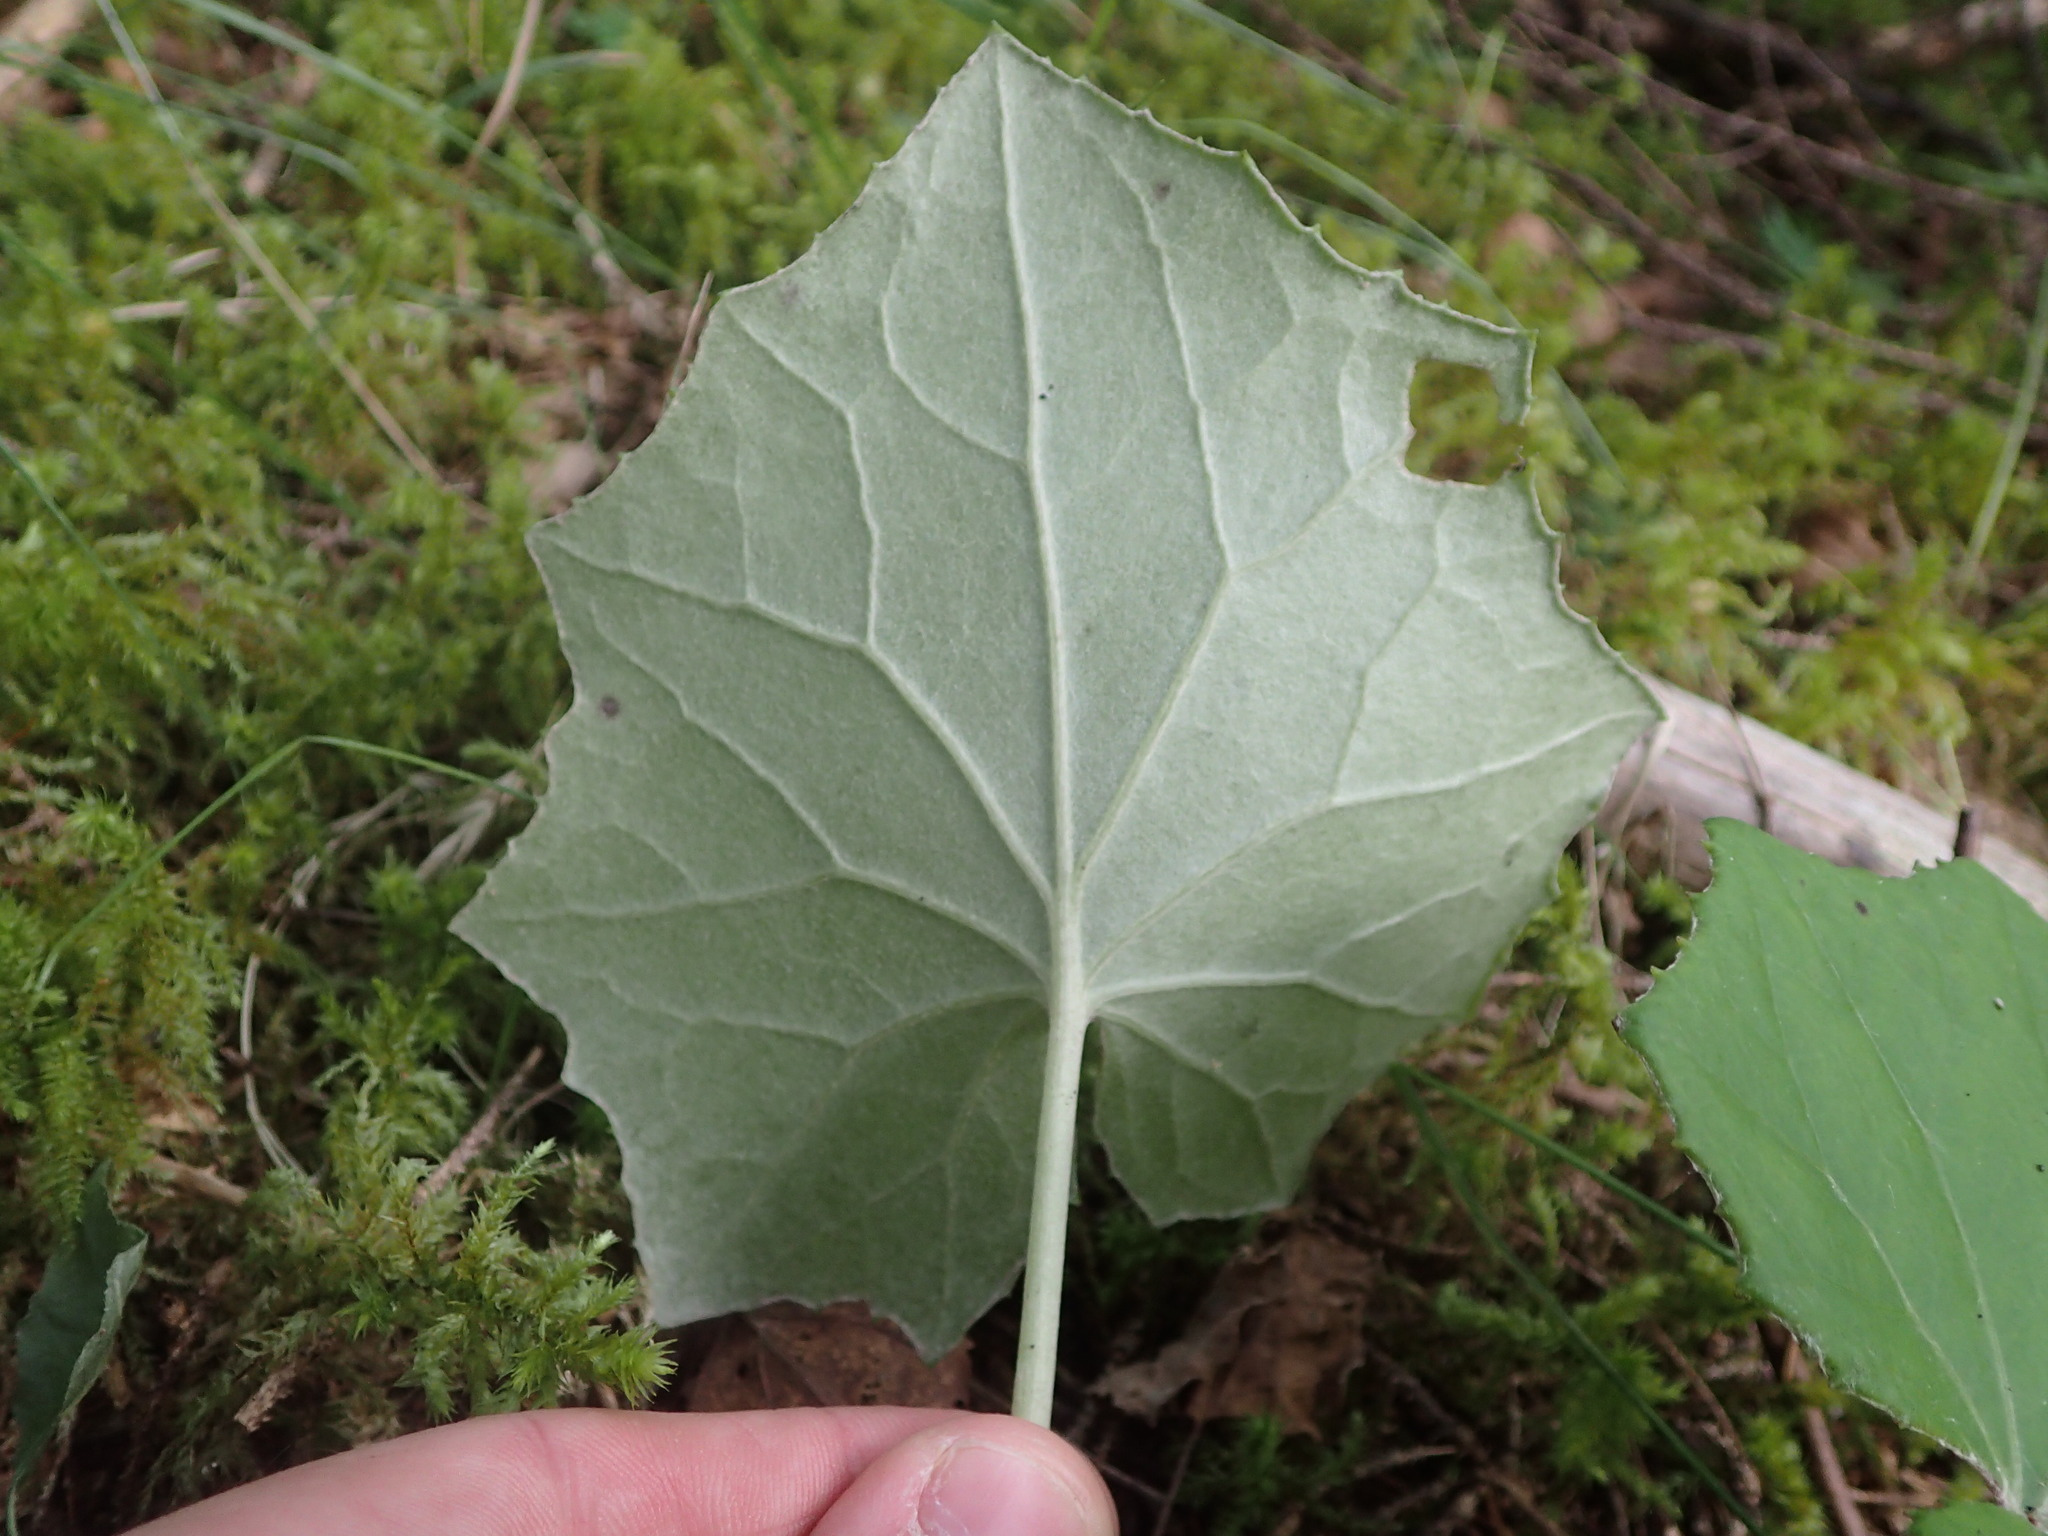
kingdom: Plantae
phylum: Tracheophyta
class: Magnoliopsida
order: Asterales
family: Asteraceae
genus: Tussilago
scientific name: Tussilago farfara
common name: Coltsfoot
